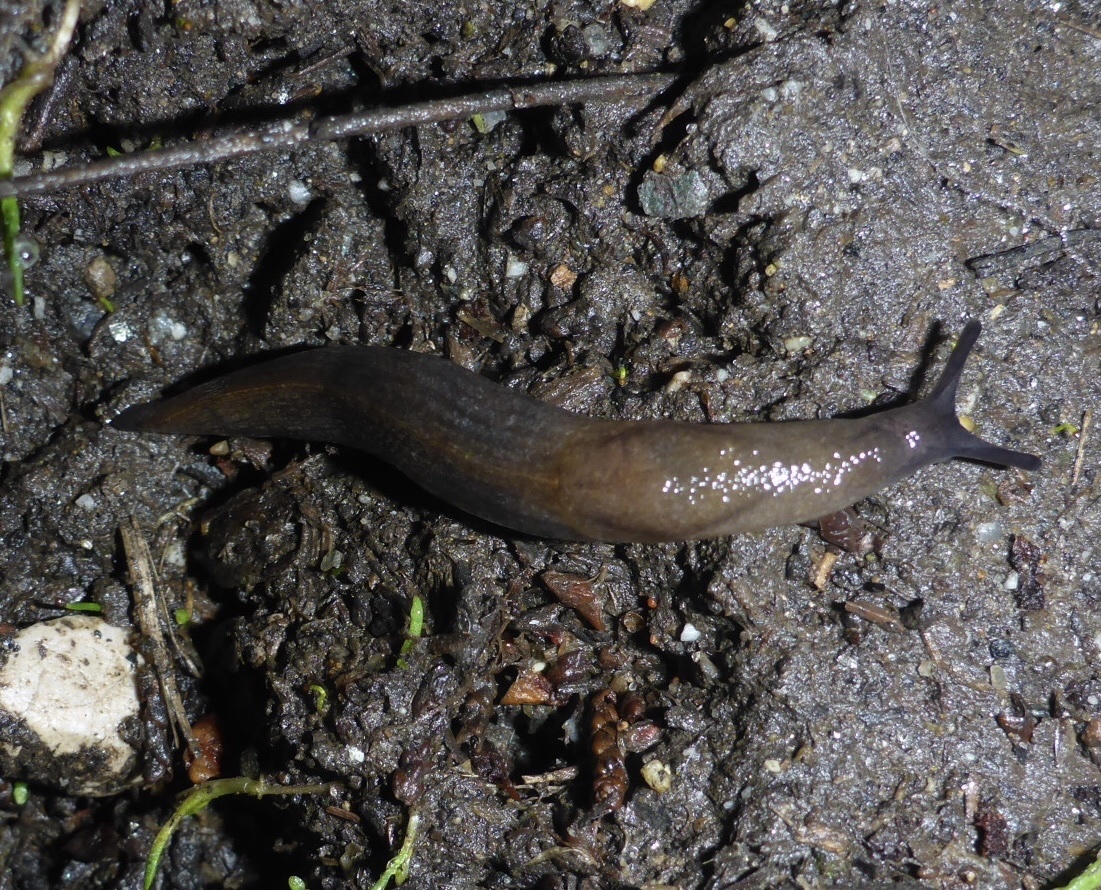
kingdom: Animalia
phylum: Mollusca
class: Gastropoda
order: Stylommatophora
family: Milacidae
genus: Milax
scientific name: Milax gagates
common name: Greenhouse slug
